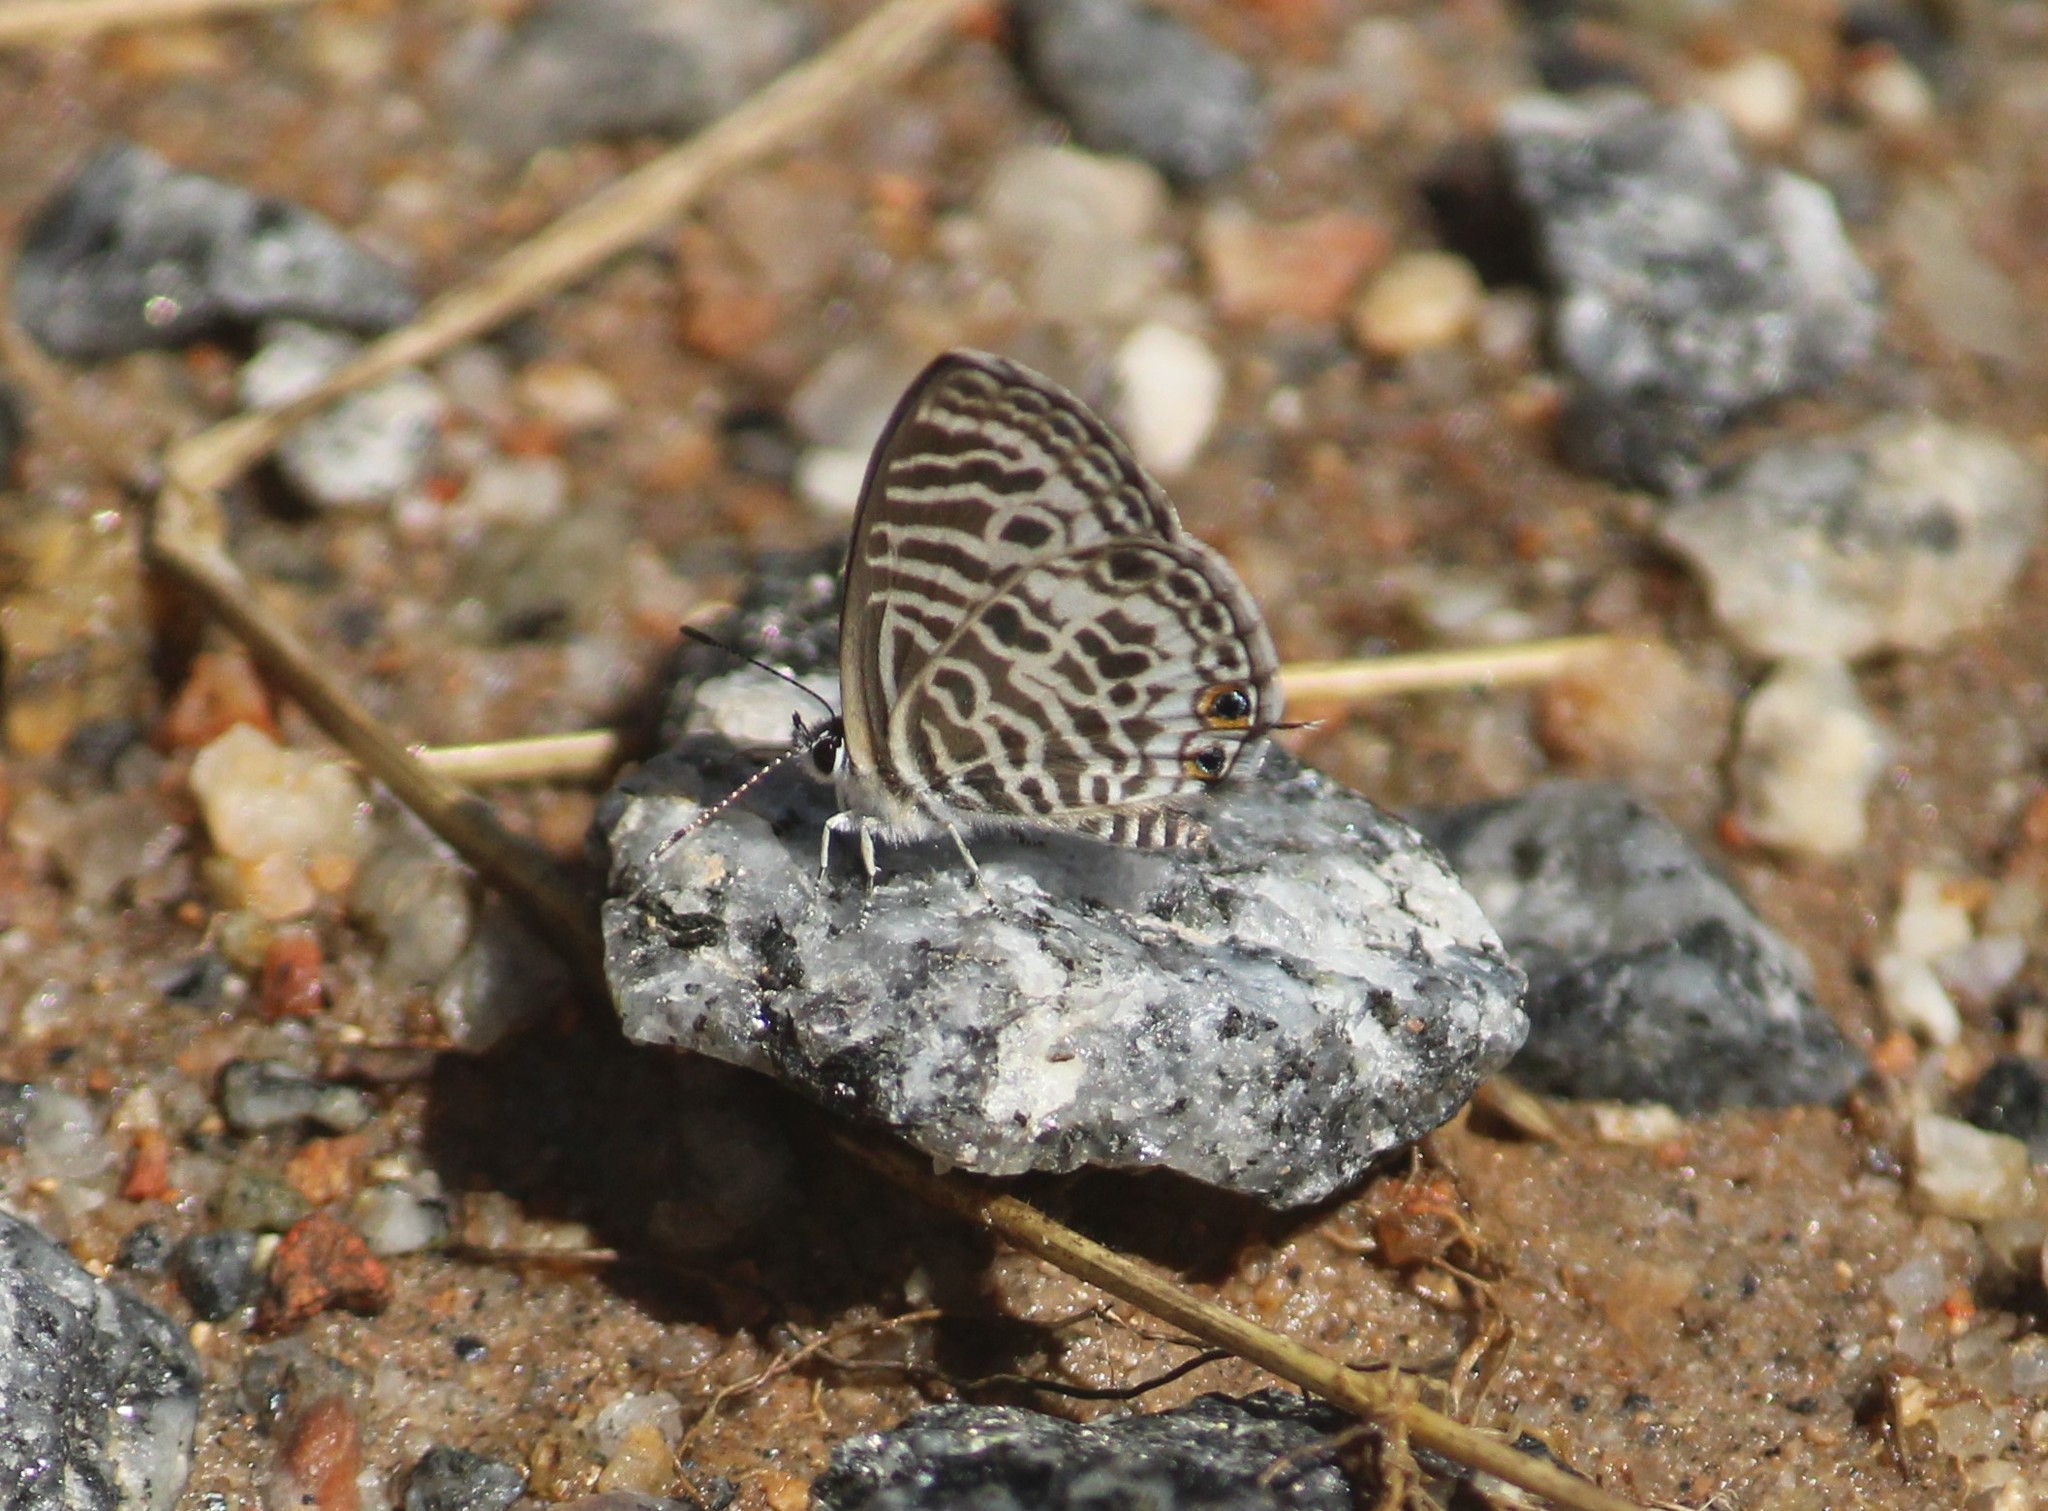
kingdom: Animalia
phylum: Arthropoda
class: Insecta
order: Lepidoptera
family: Lycaenidae
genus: Leptotes
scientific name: Leptotes plinius
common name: Zebra blue
